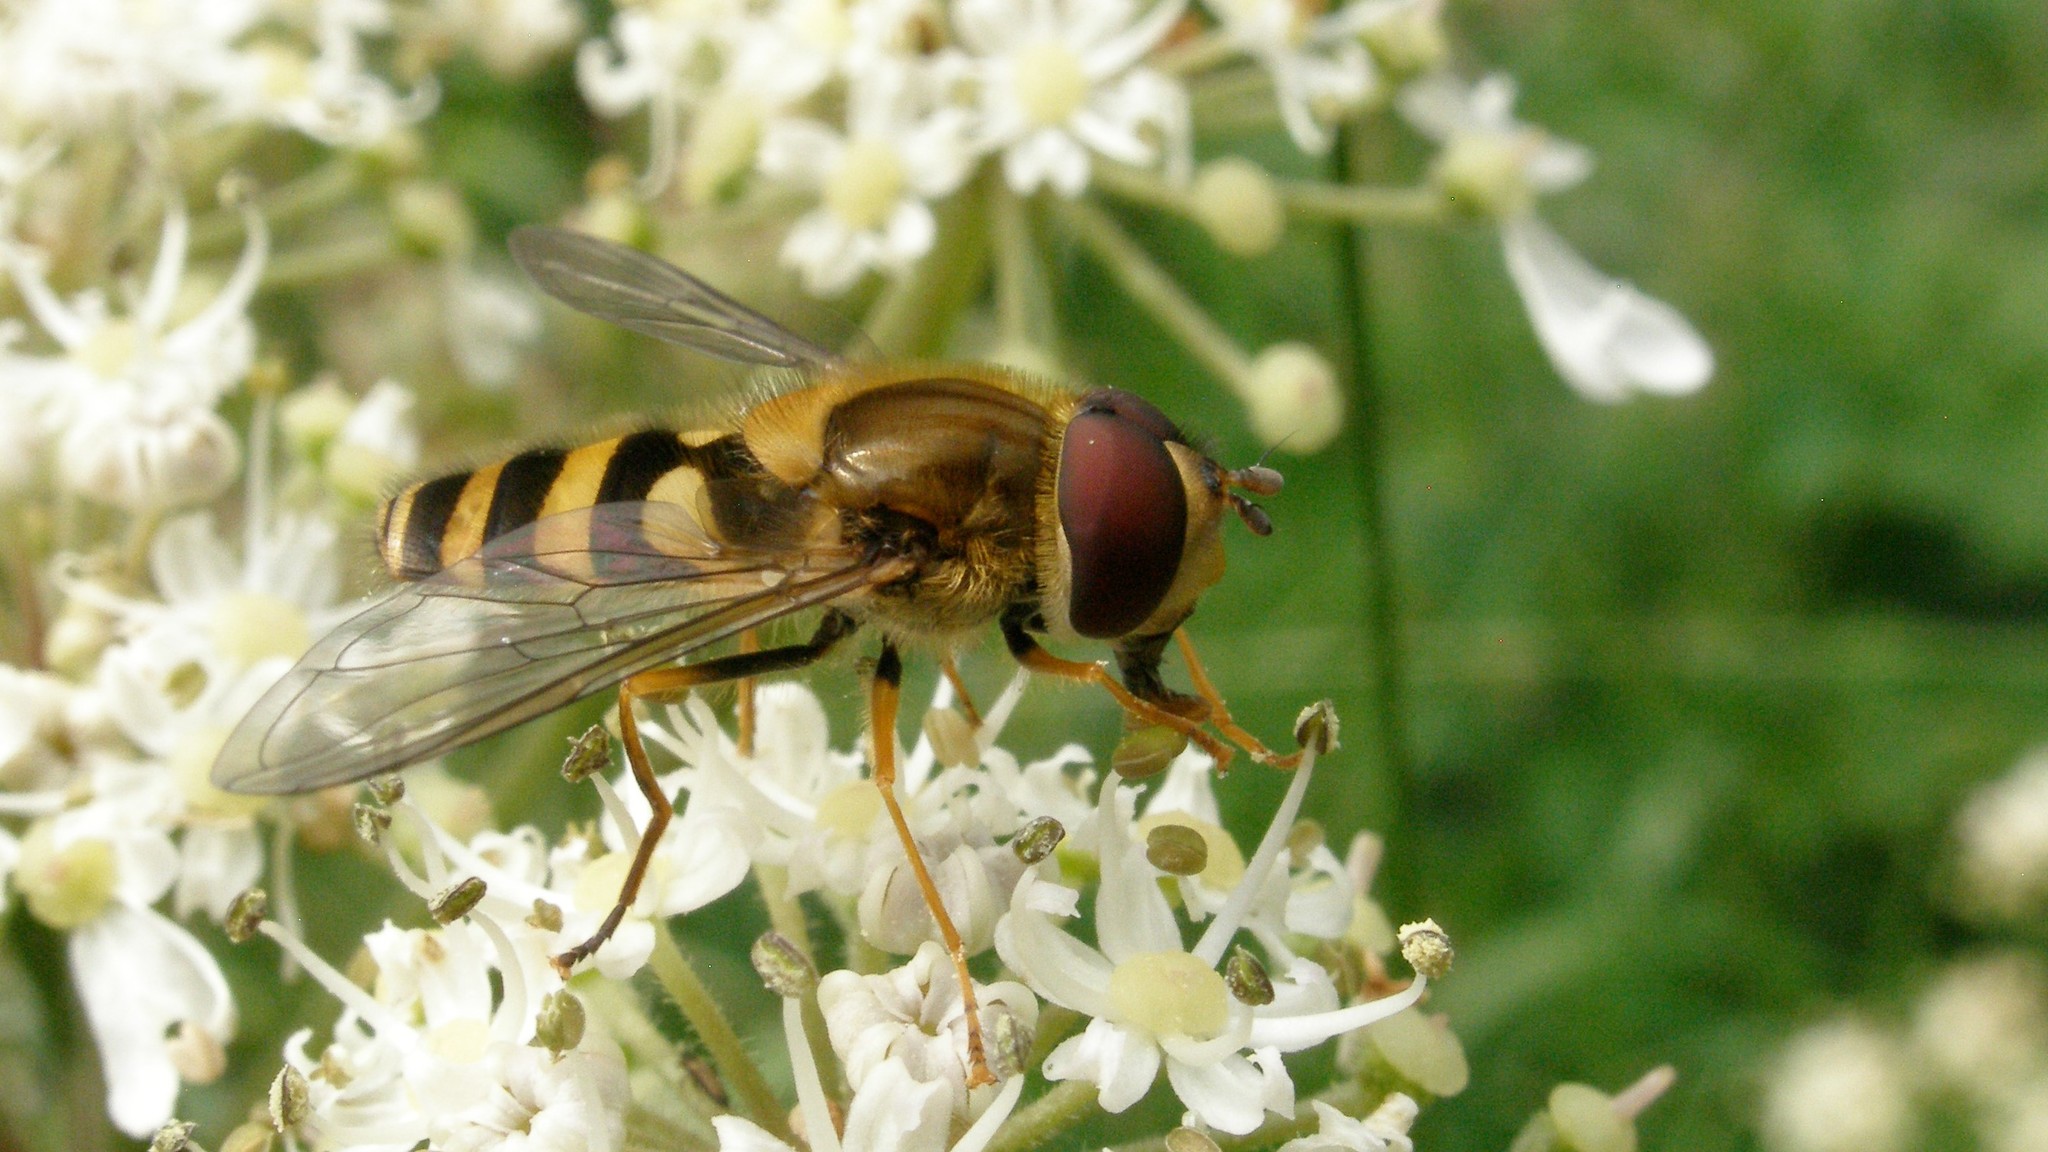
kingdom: Animalia
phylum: Arthropoda
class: Insecta
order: Diptera
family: Syrphidae
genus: Syrphus
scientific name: Syrphus
